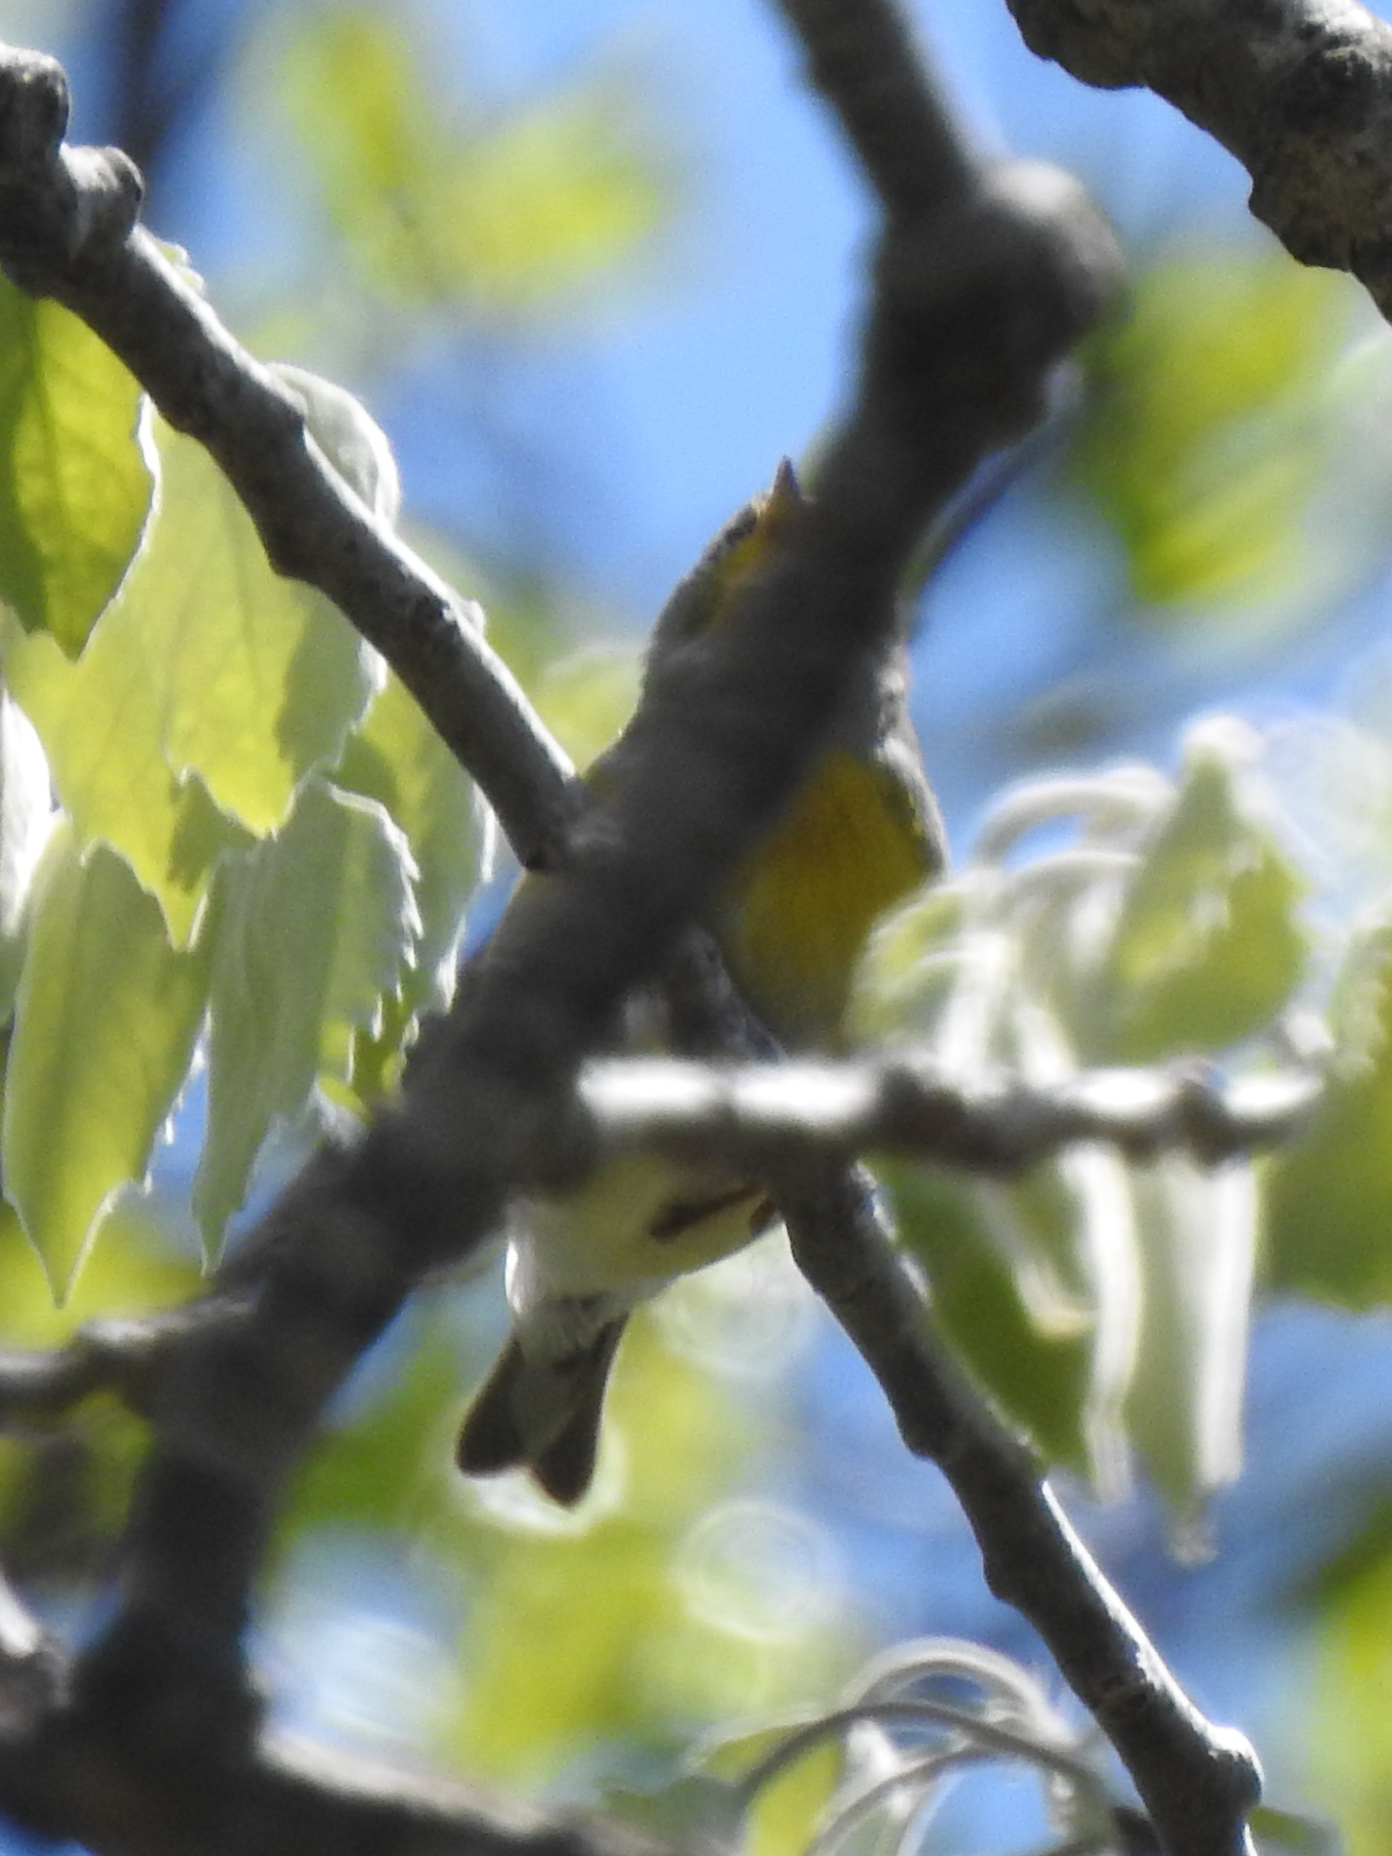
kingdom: Animalia
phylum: Chordata
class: Aves
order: Passeriformes
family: Parulidae
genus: Setophaga
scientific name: Setophaga americana
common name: Northern parula
